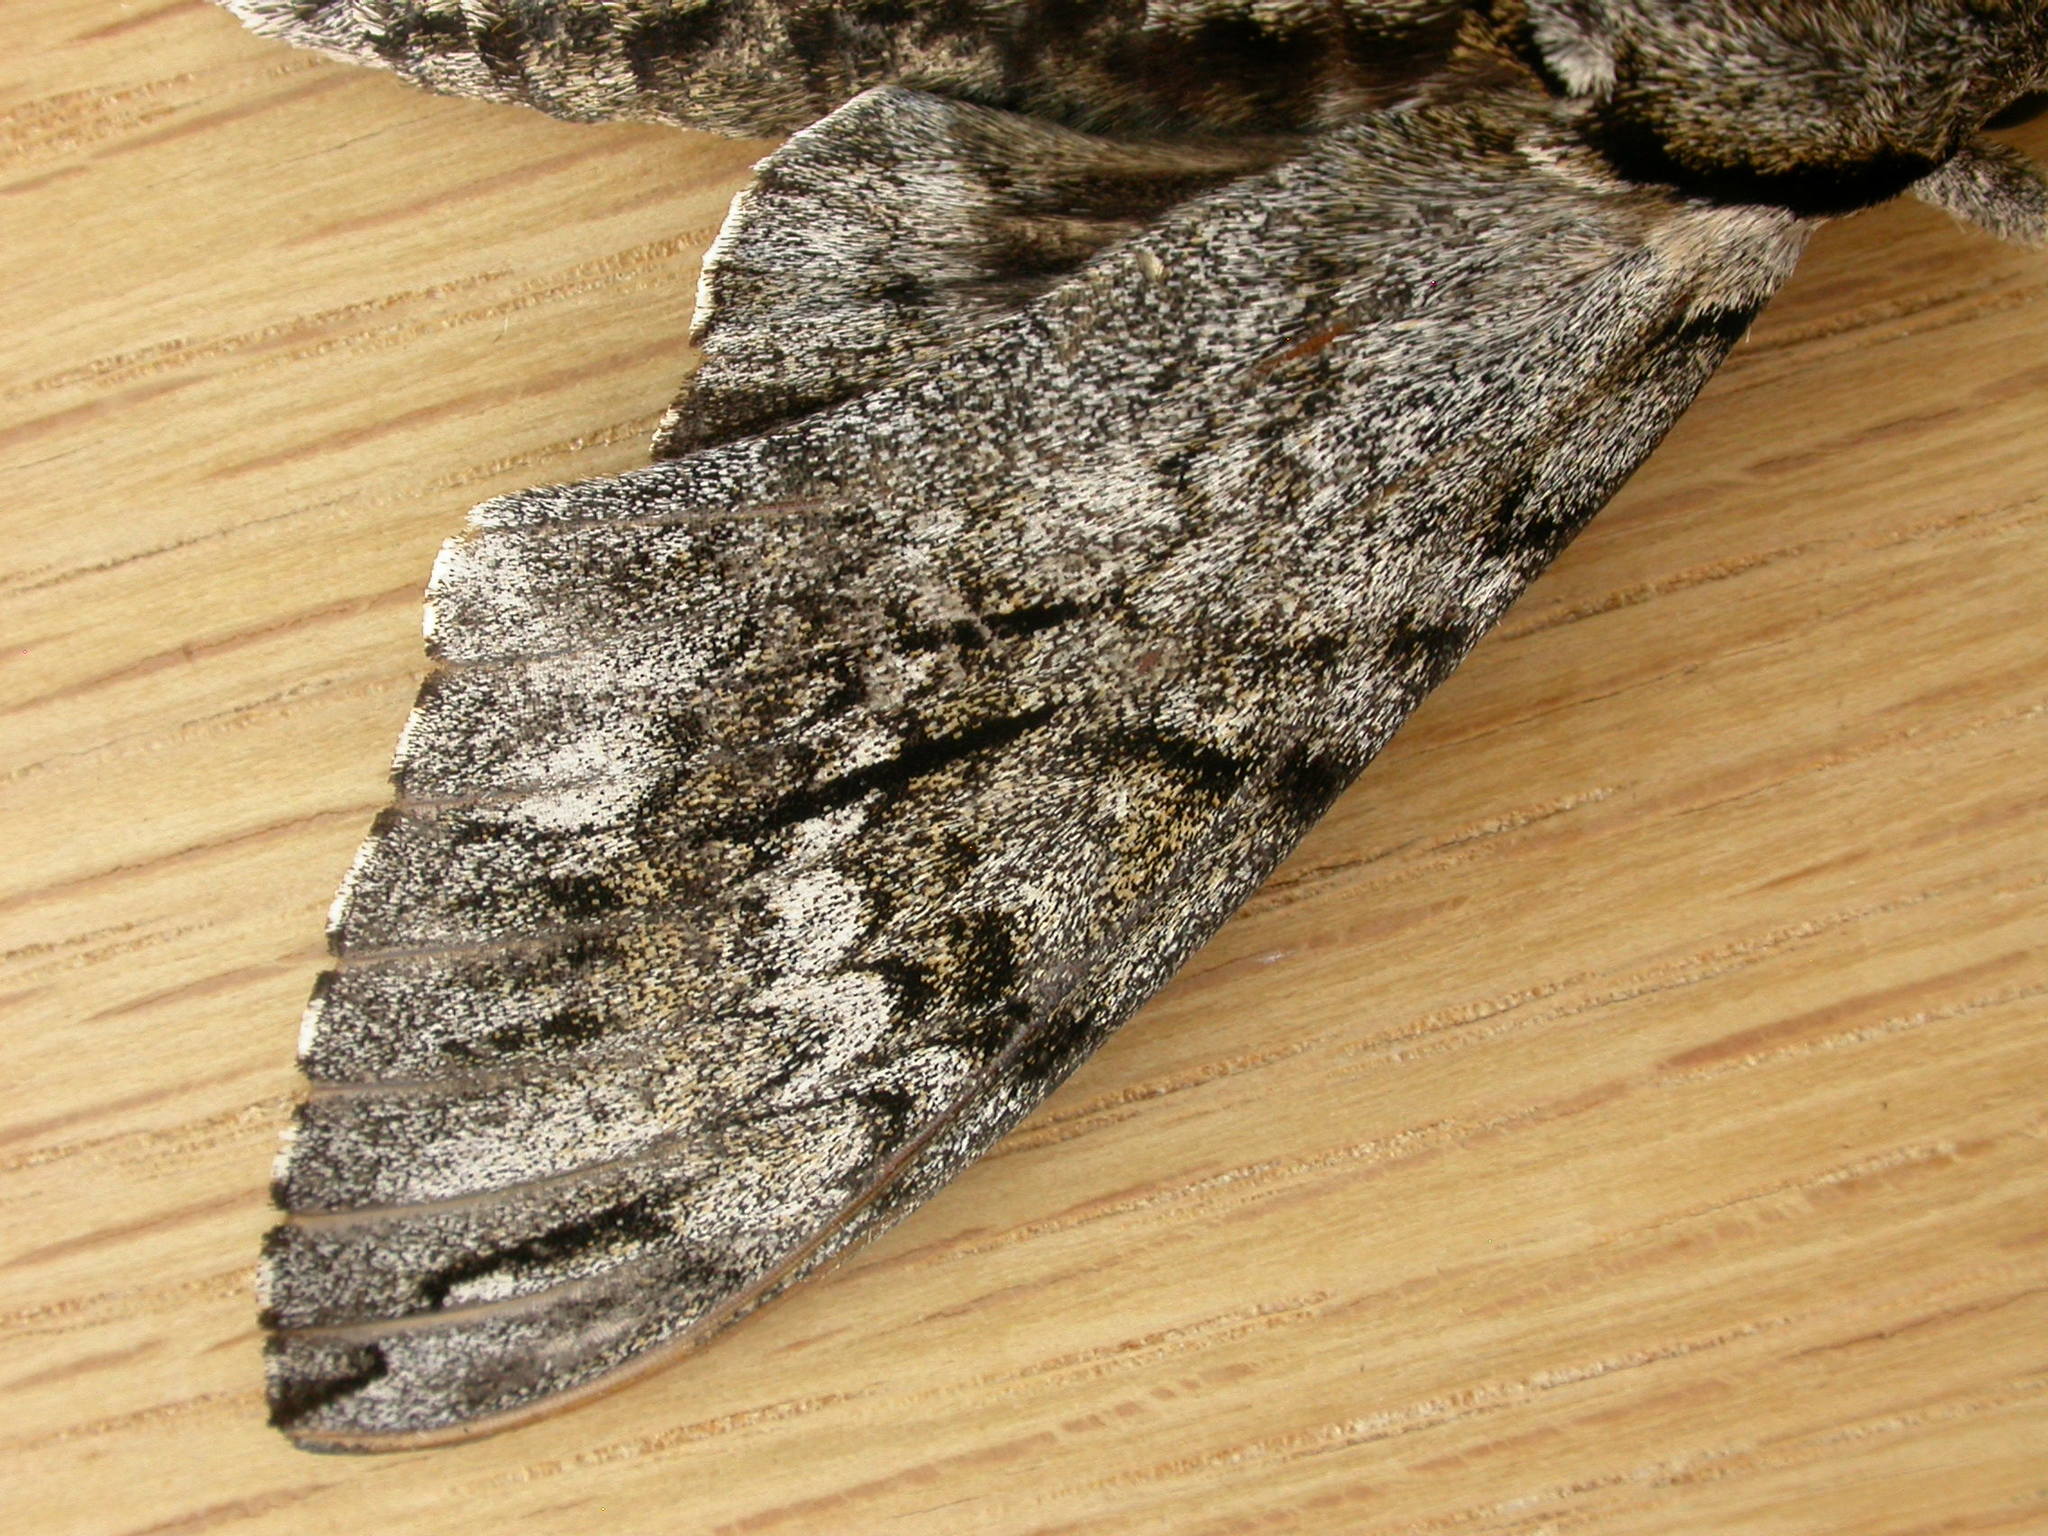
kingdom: Animalia
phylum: Arthropoda
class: Insecta
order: Lepidoptera
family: Sphingidae
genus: Psilogramma
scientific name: Psilogramma casuarinae
